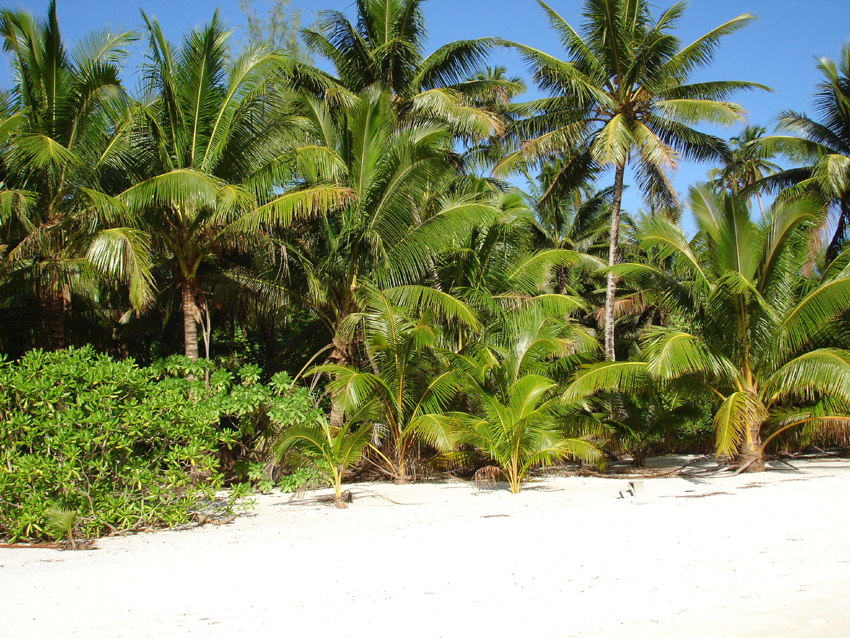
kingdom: Plantae
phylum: Tracheophyta
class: Liliopsida
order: Arecales
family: Arecaceae
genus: Cocos
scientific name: Cocos nucifera
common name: Coconut palm
